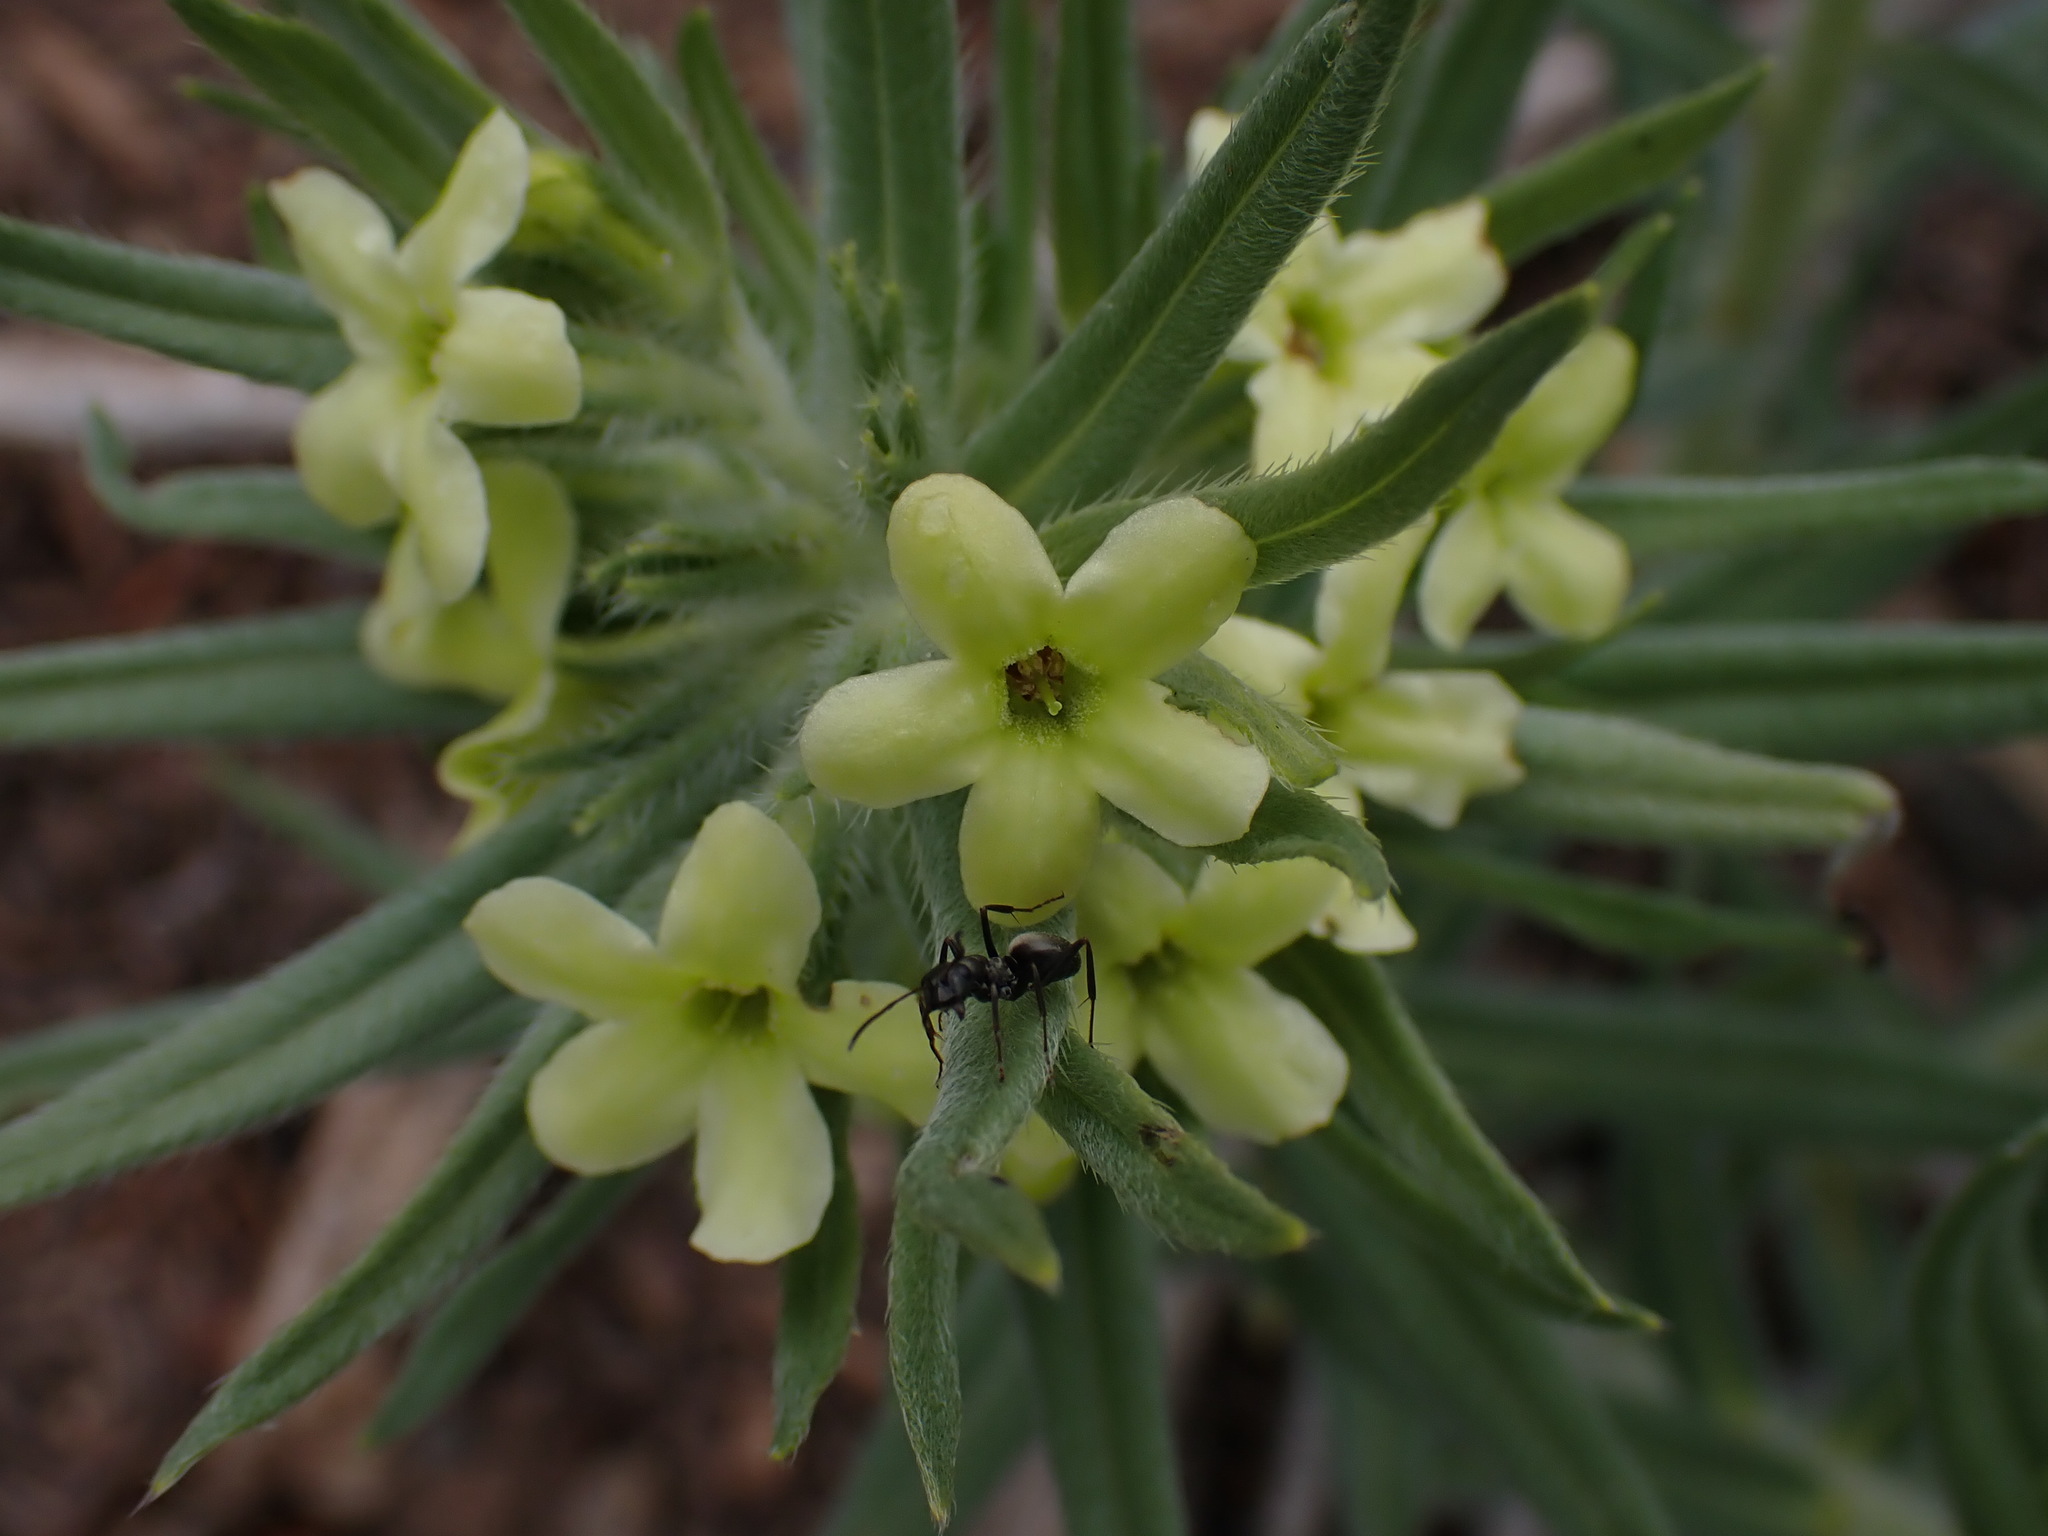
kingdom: Plantae
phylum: Tracheophyta
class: Magnoliopsida
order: Boraginales
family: Boraginaceae
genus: Lithospermum
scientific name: Lithospermum ruderale
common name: Western gromwell
